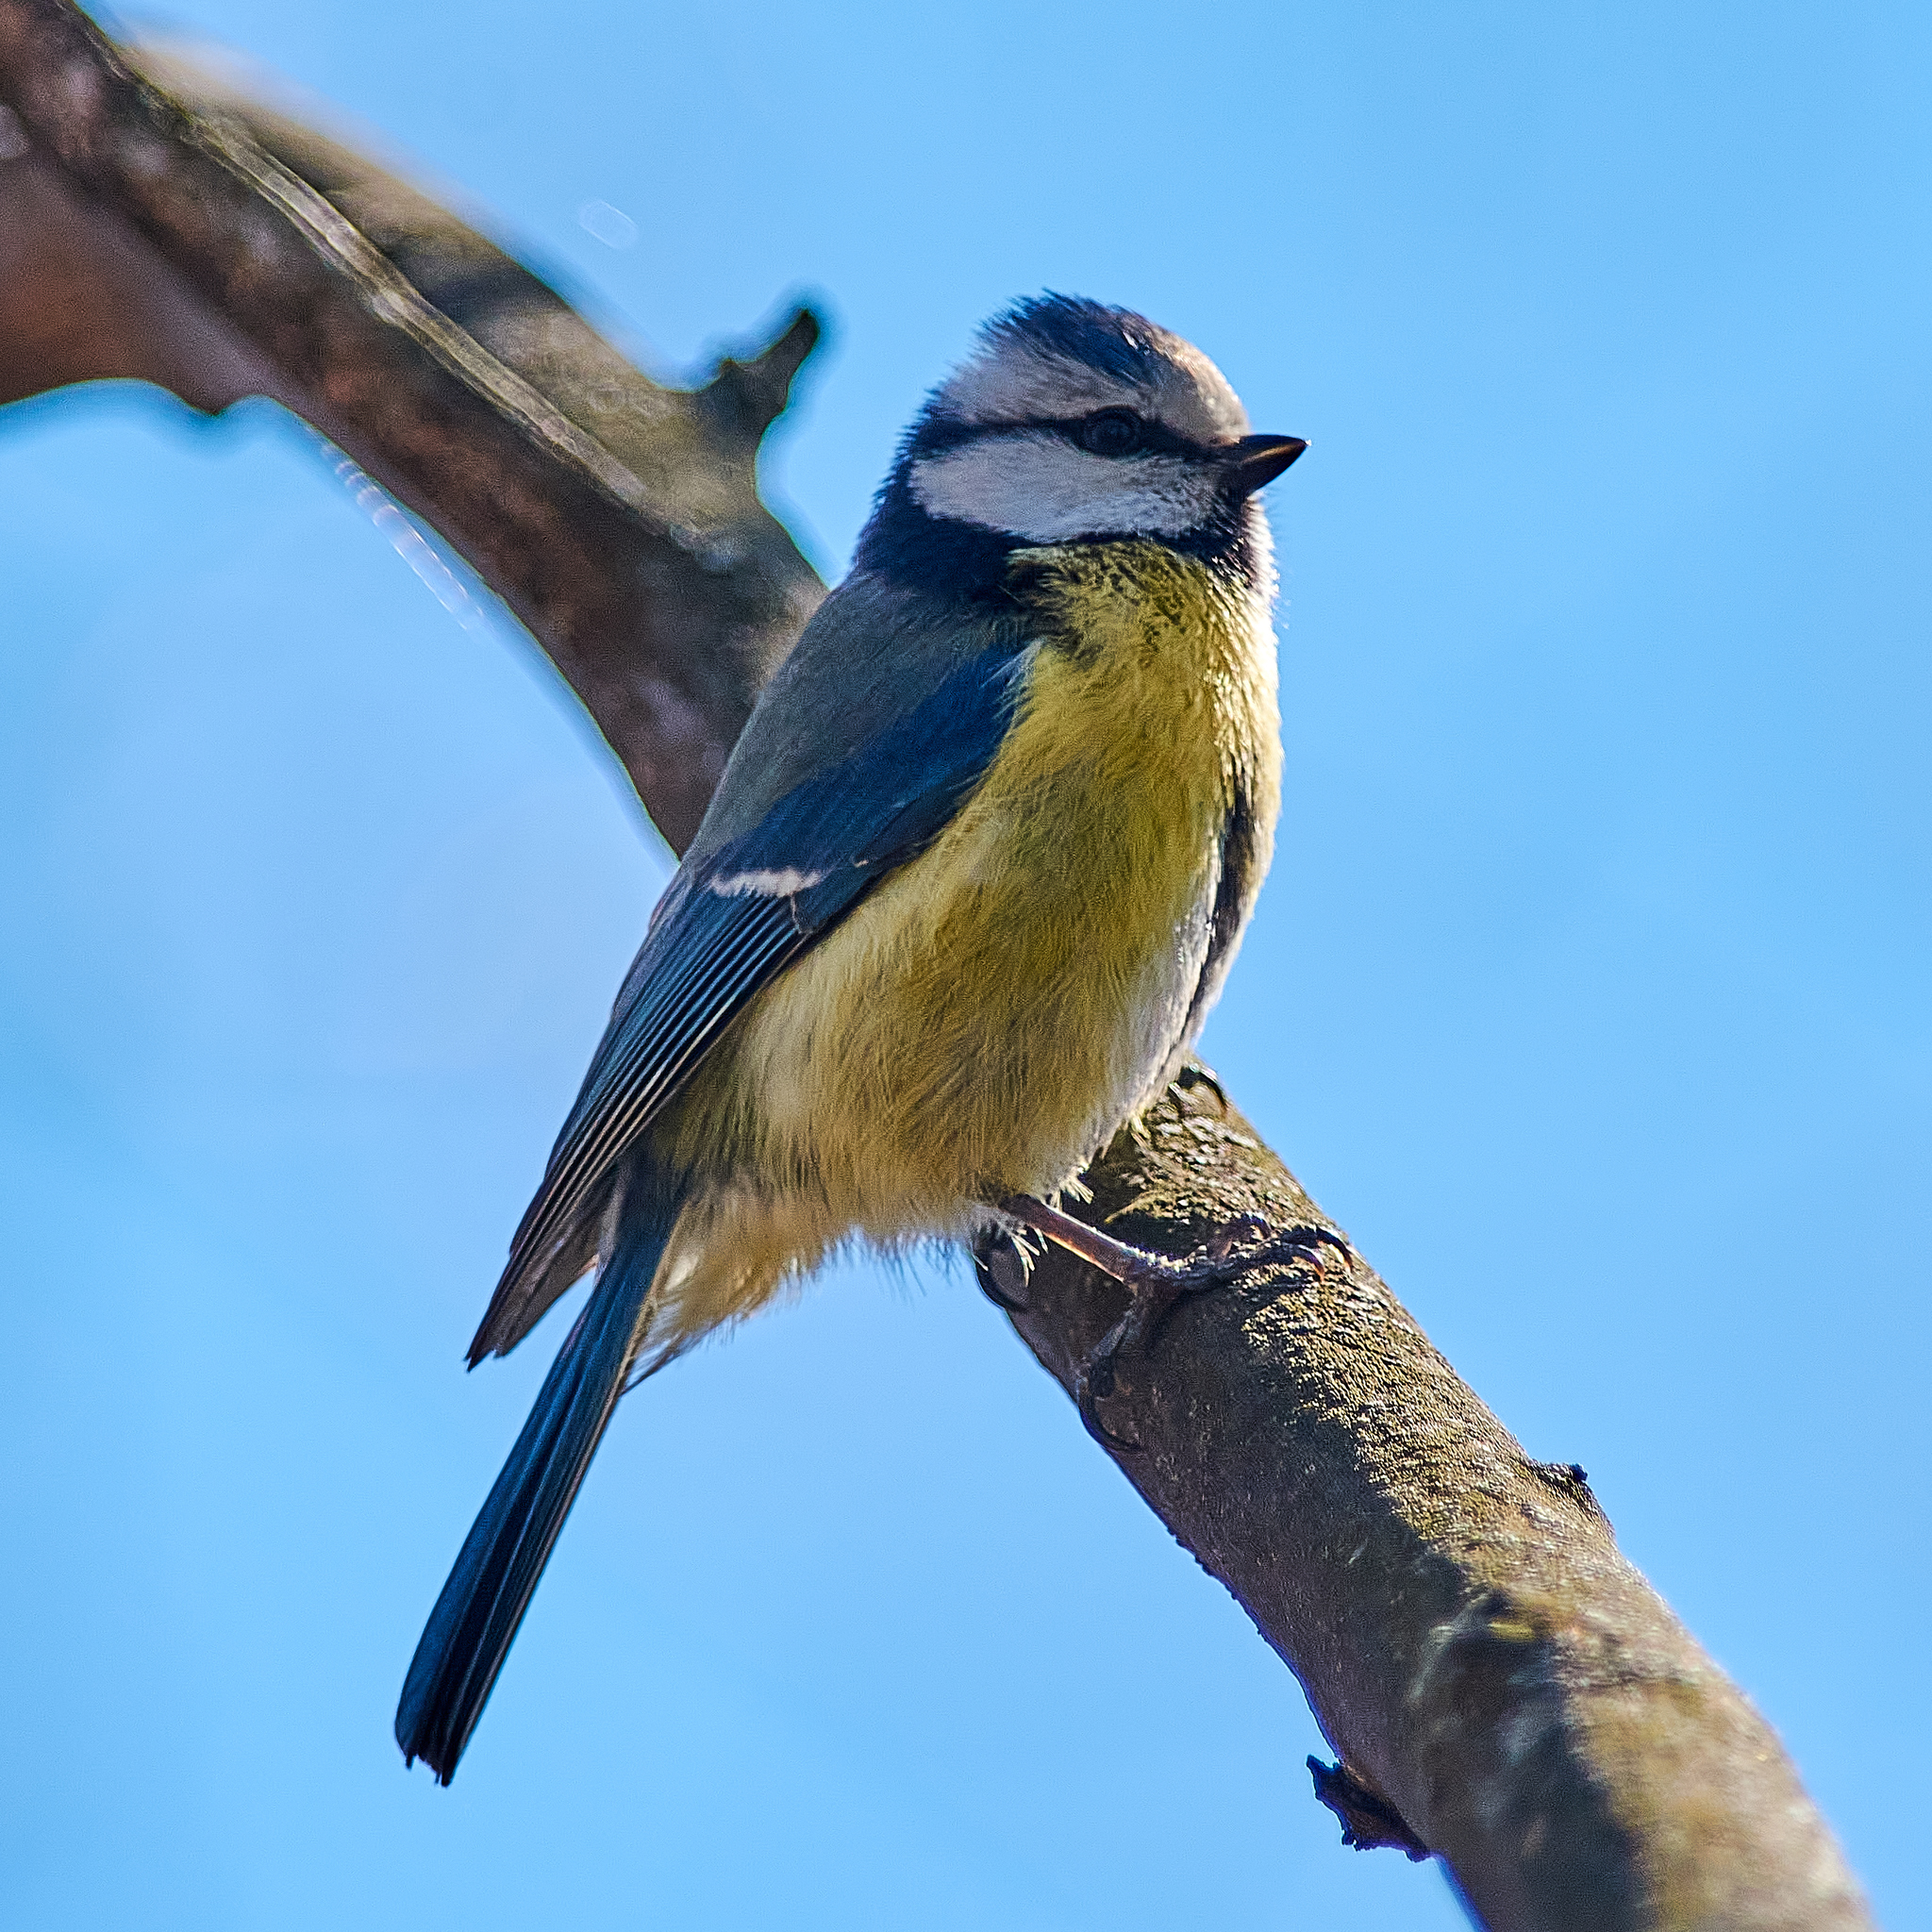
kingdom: Animalia
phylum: Chordata
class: Aves
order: Passeriformes
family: Paridae
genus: Cyanistes
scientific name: Cyanistes caeruleus
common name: Eurasian blue tit
